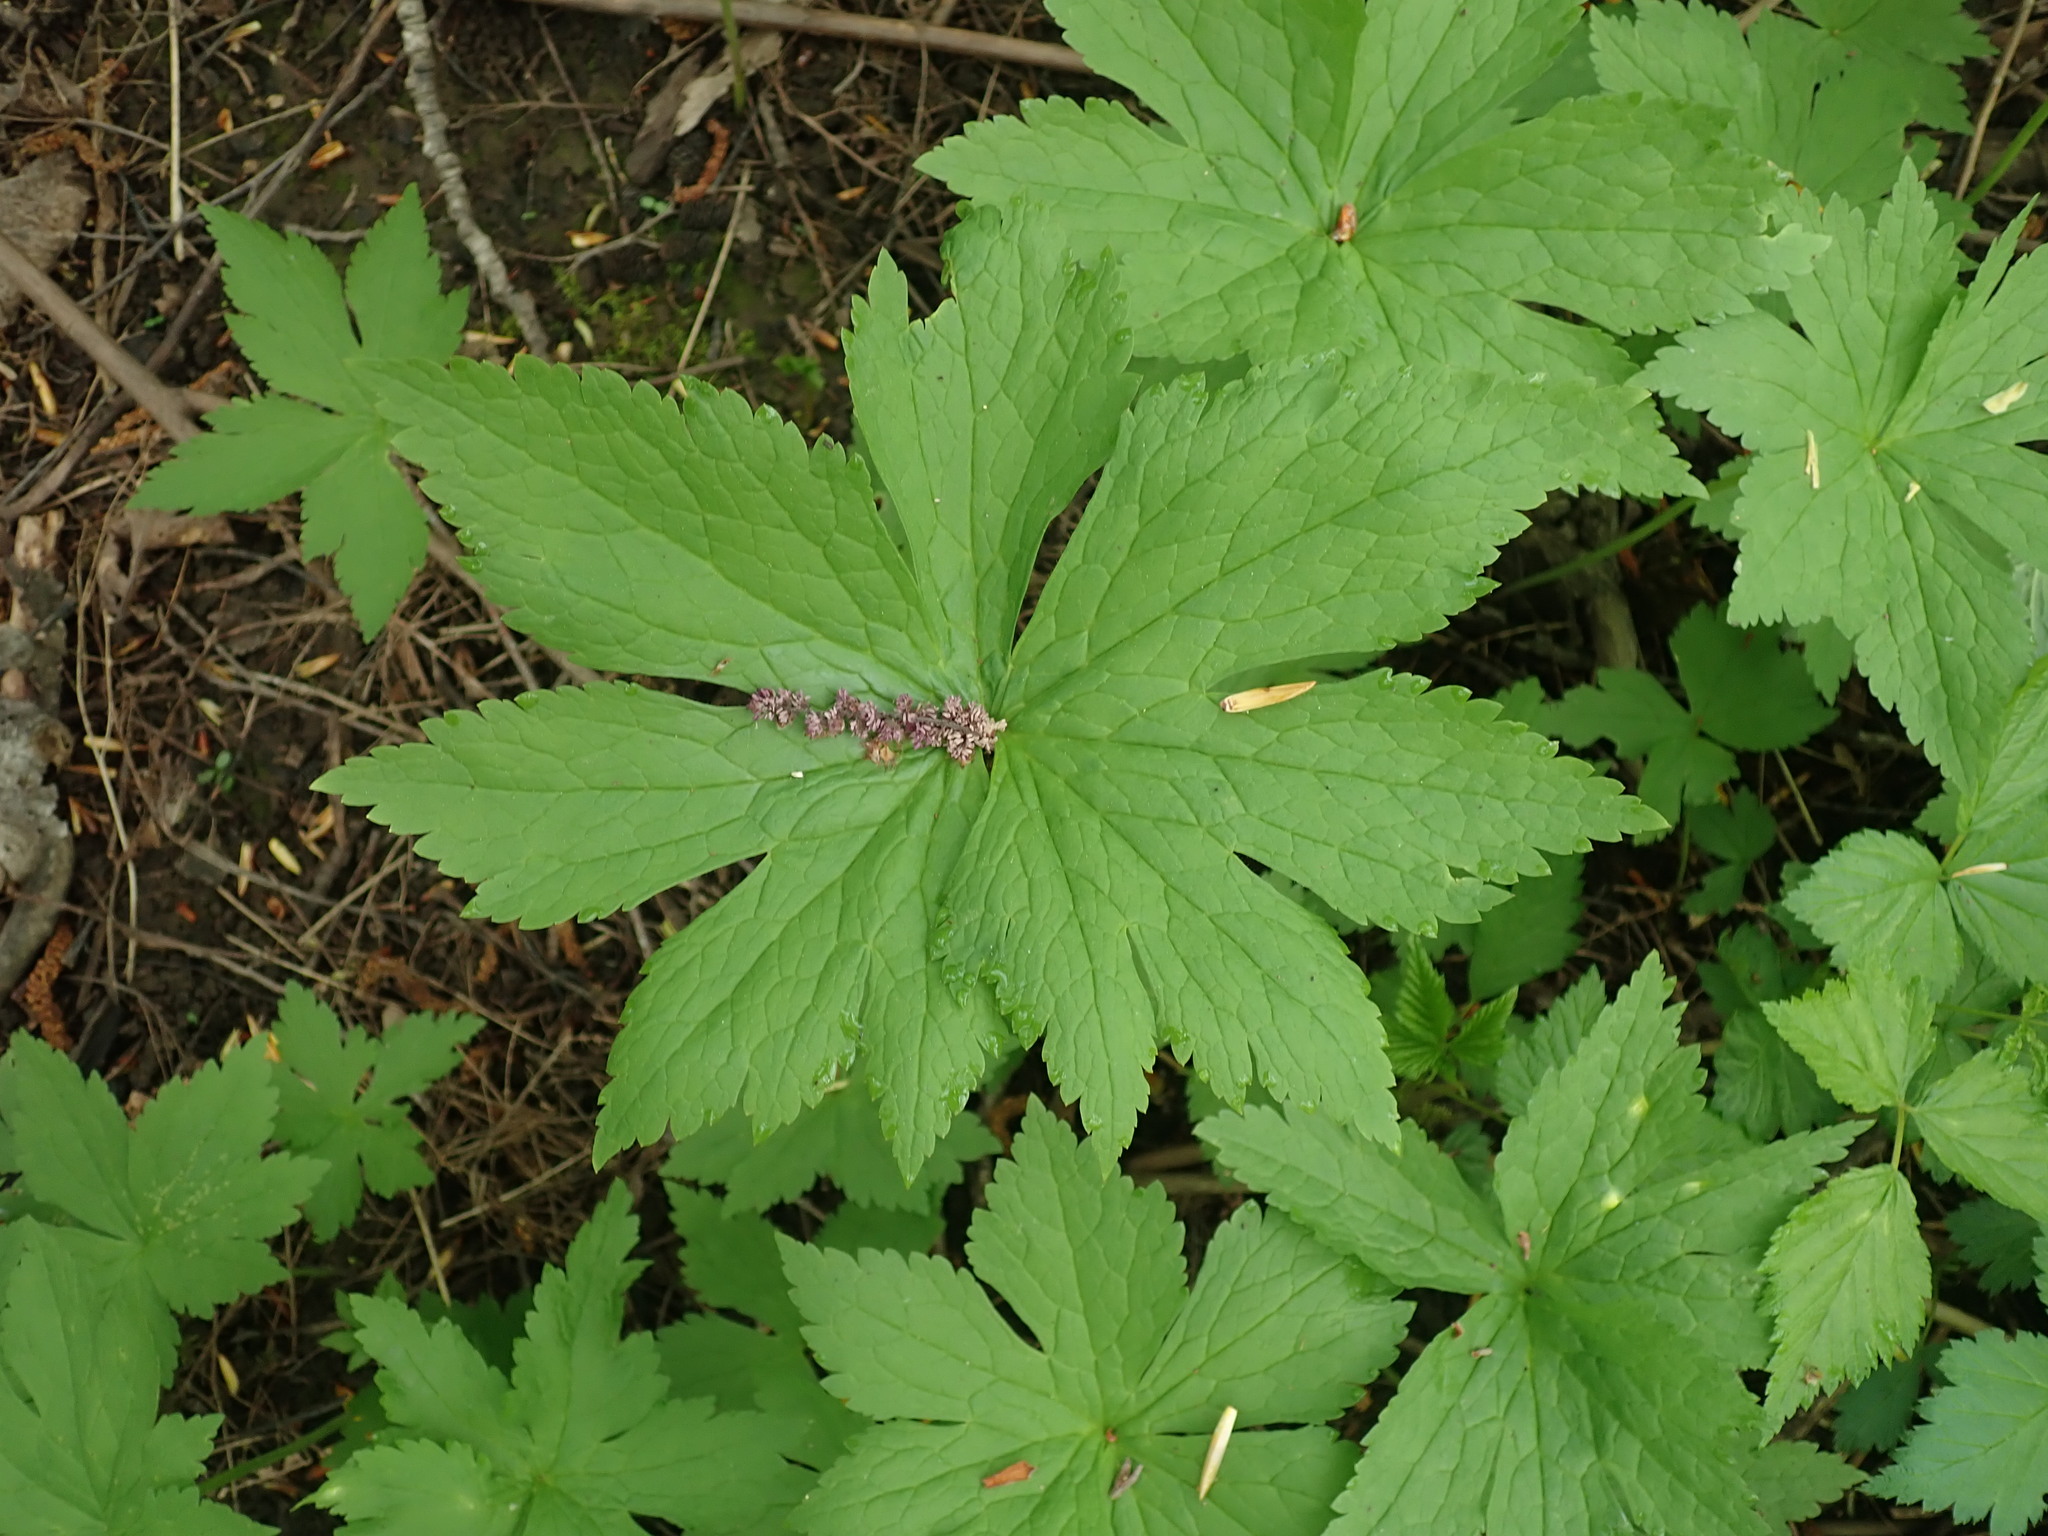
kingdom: Plantae
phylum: Tracheophyta
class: Magnoliopsida
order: Ranunculales
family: Ranunculaceae
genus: Trautvetteria
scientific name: Trautvetteria carolinensis
